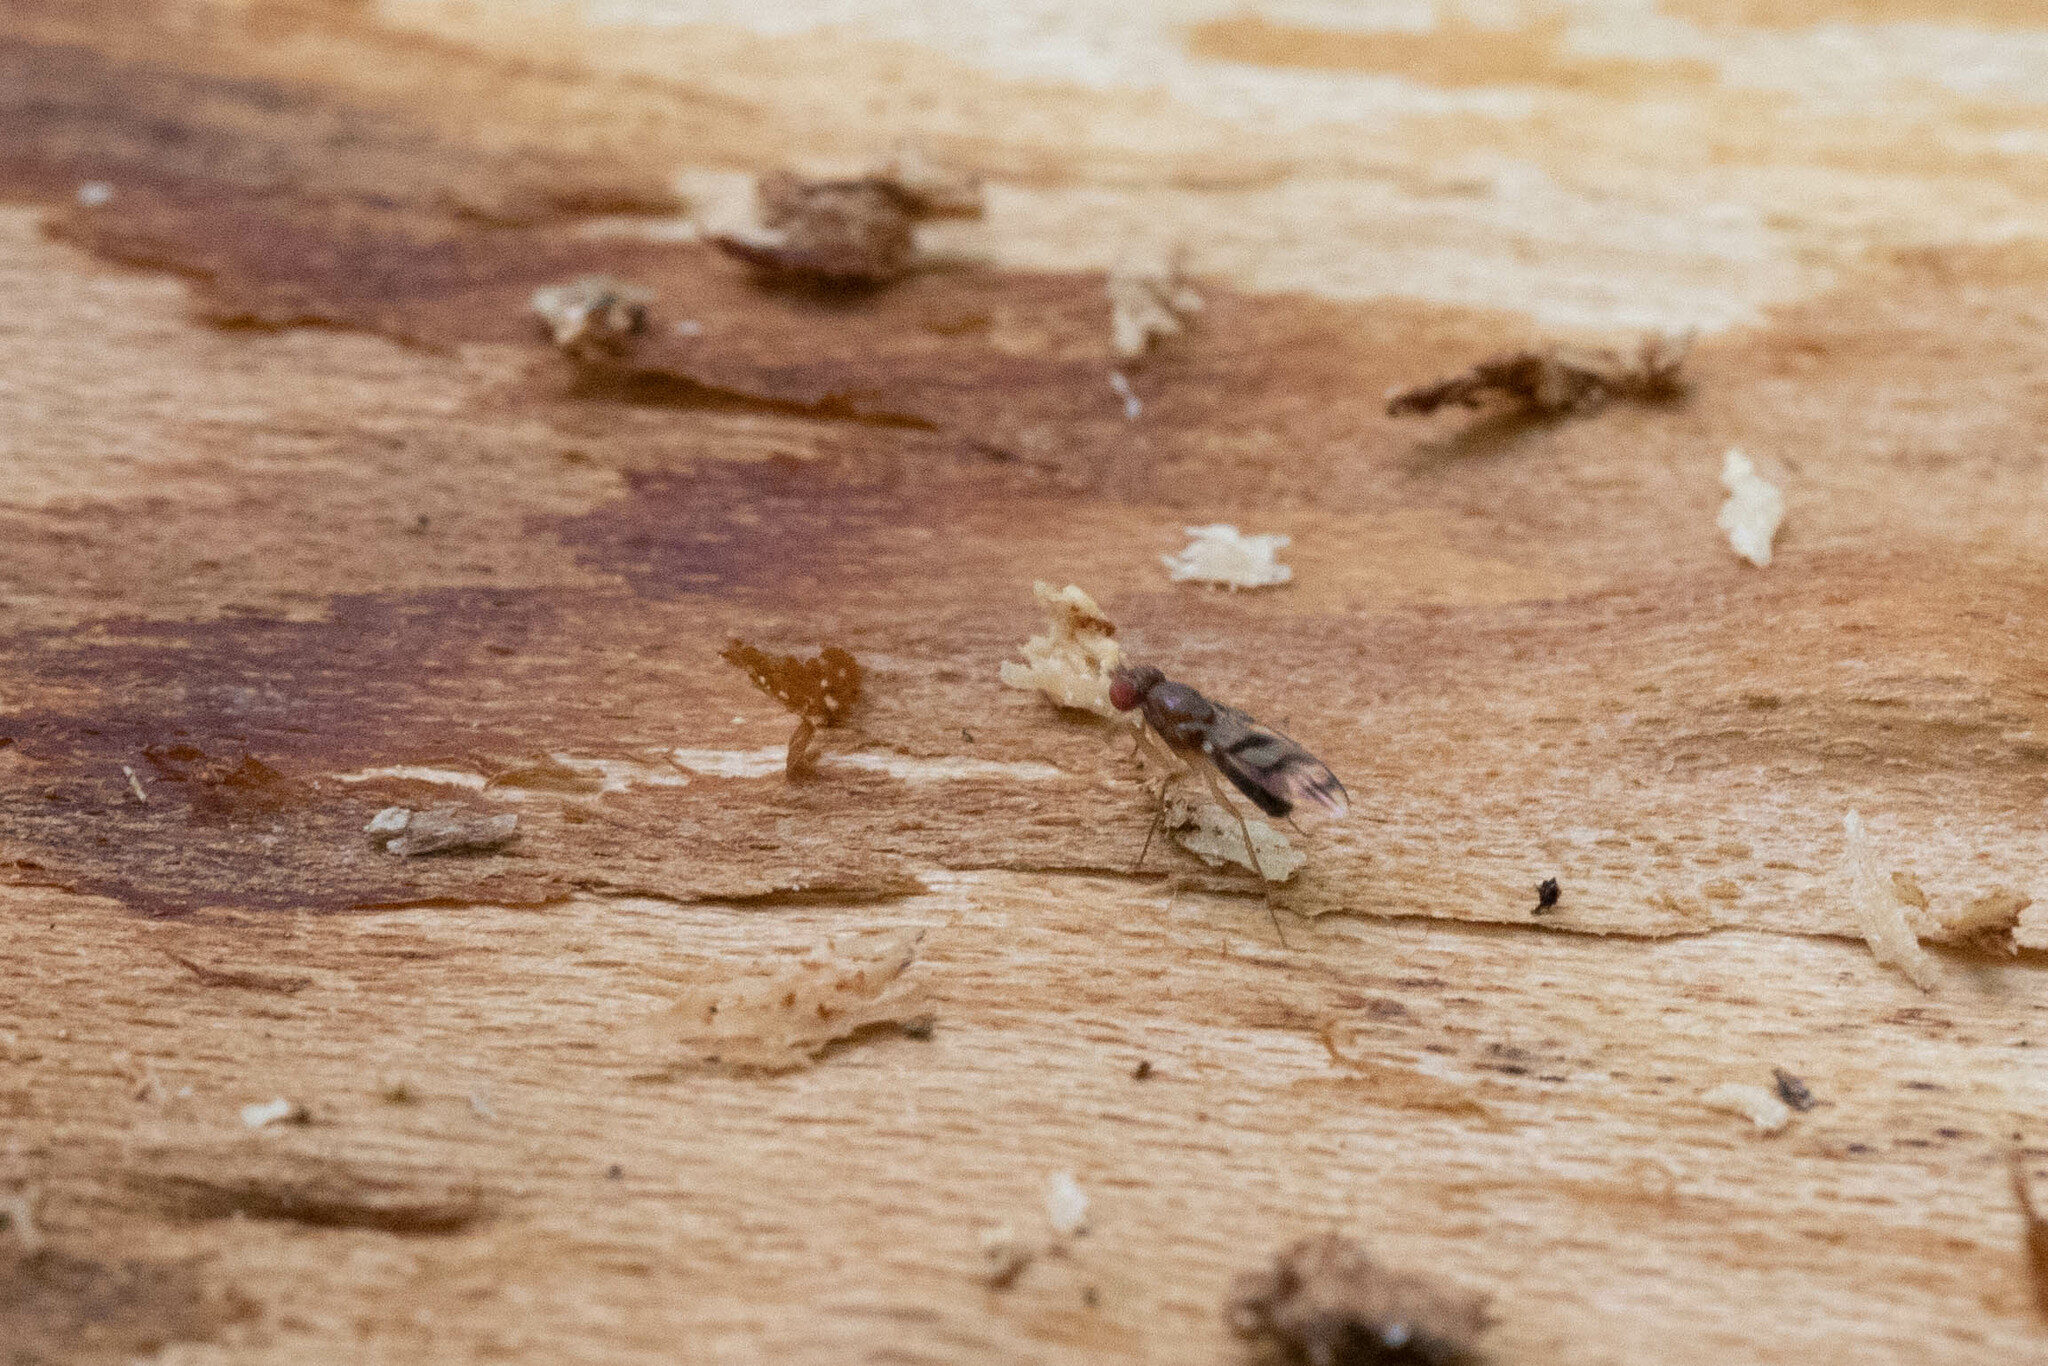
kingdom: Animalia
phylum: Arthropoda
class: Insecta
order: Diptera
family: Drosophilidae
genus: Chymomyza
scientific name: Chymomyza amoena
